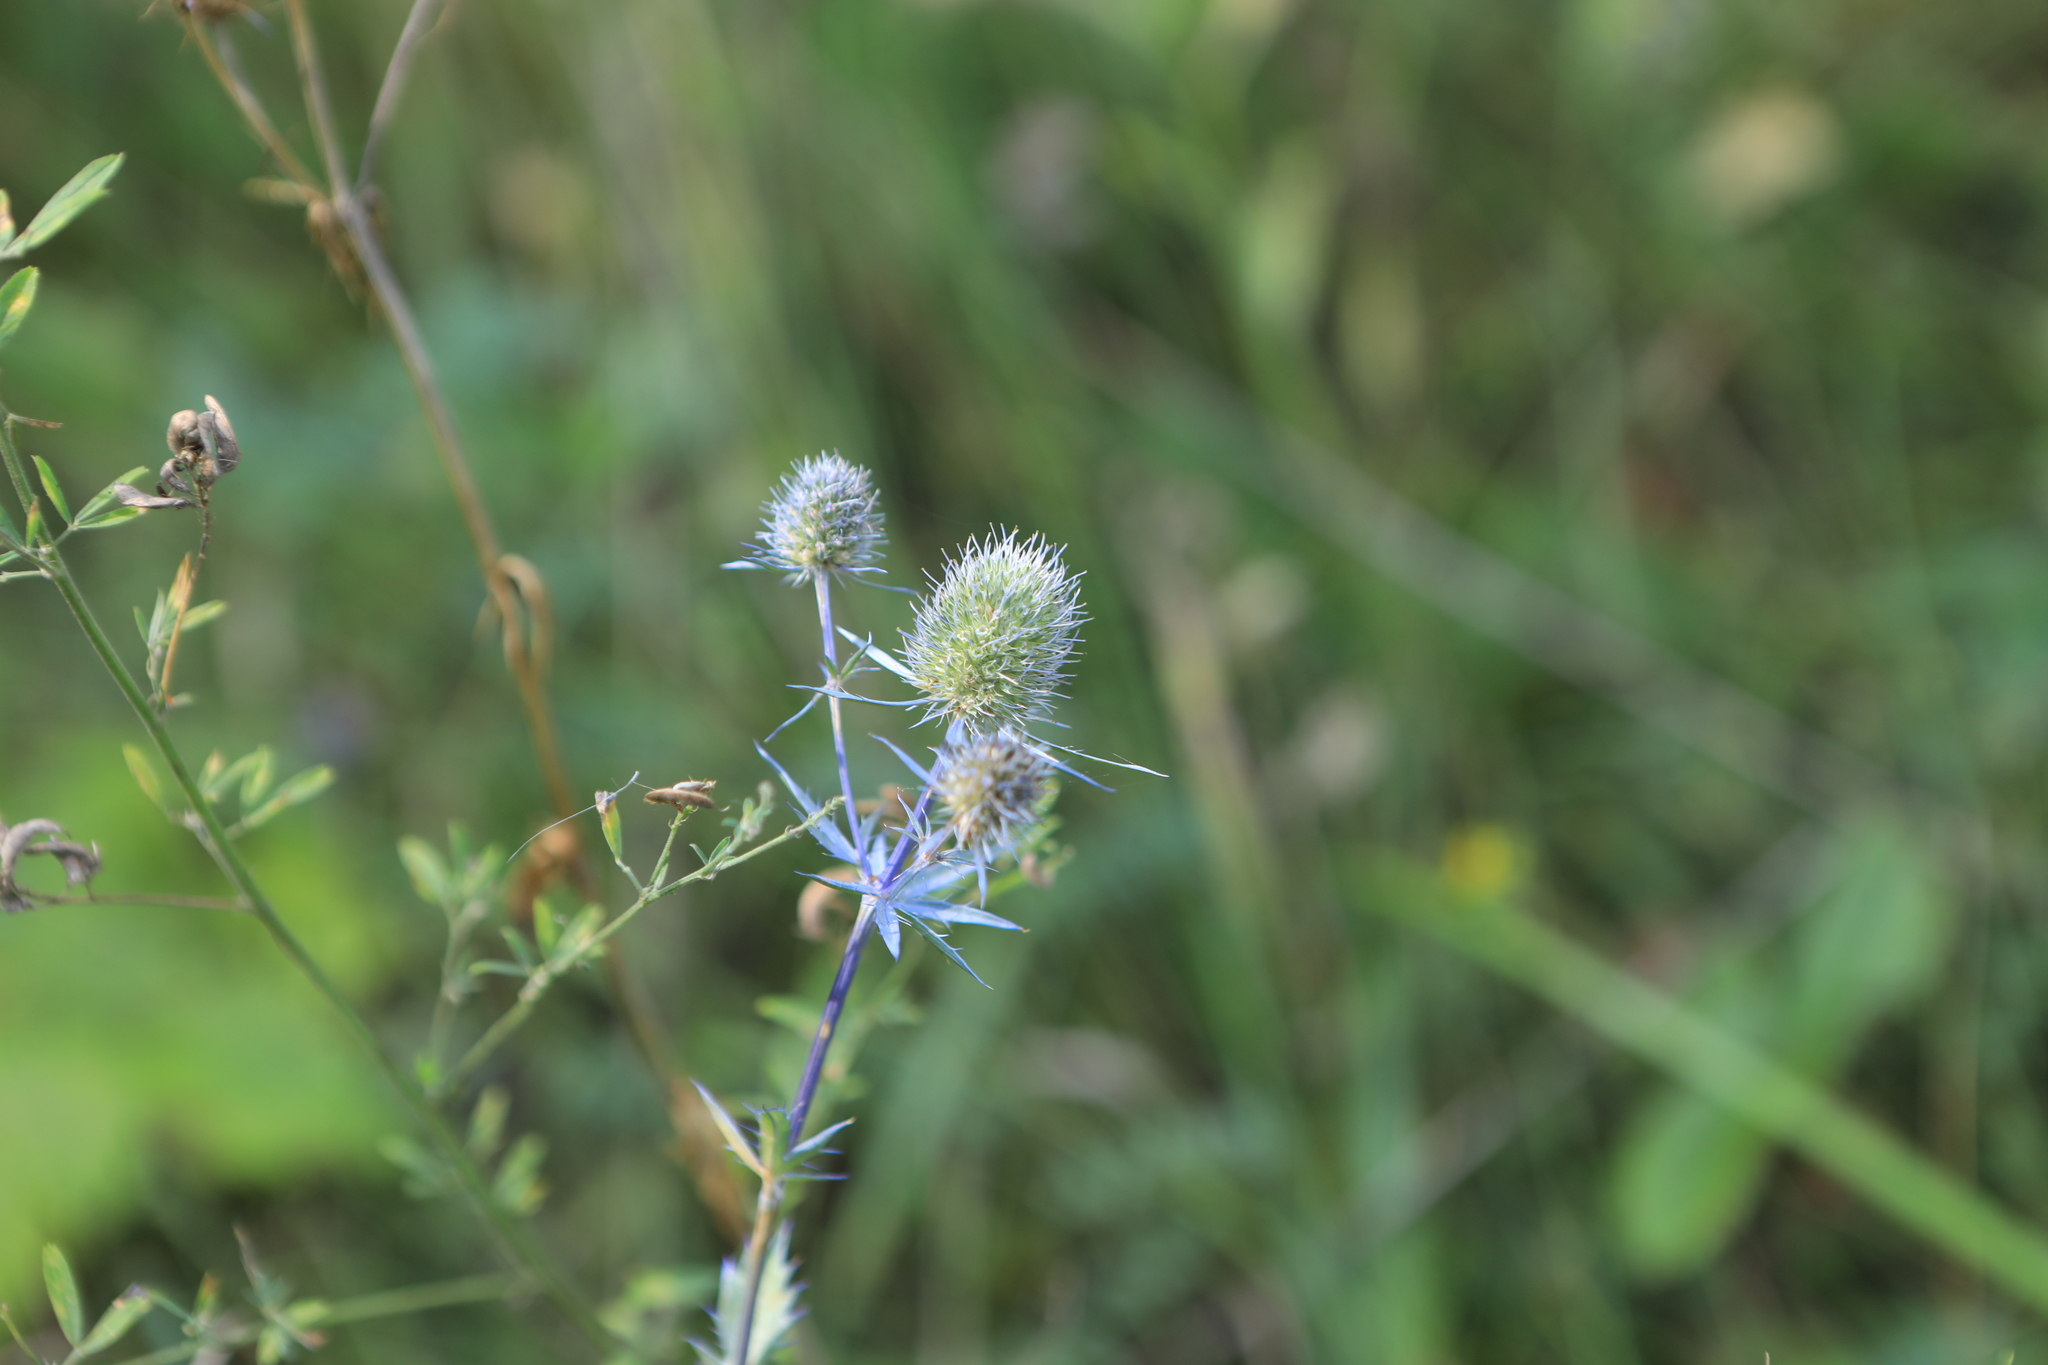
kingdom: Plantae
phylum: Tracheophyta
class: Magnoliopsida
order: Apiales
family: Apiaceae
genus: Eryngium
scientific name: Eryngium planum
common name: Blue eryngo
